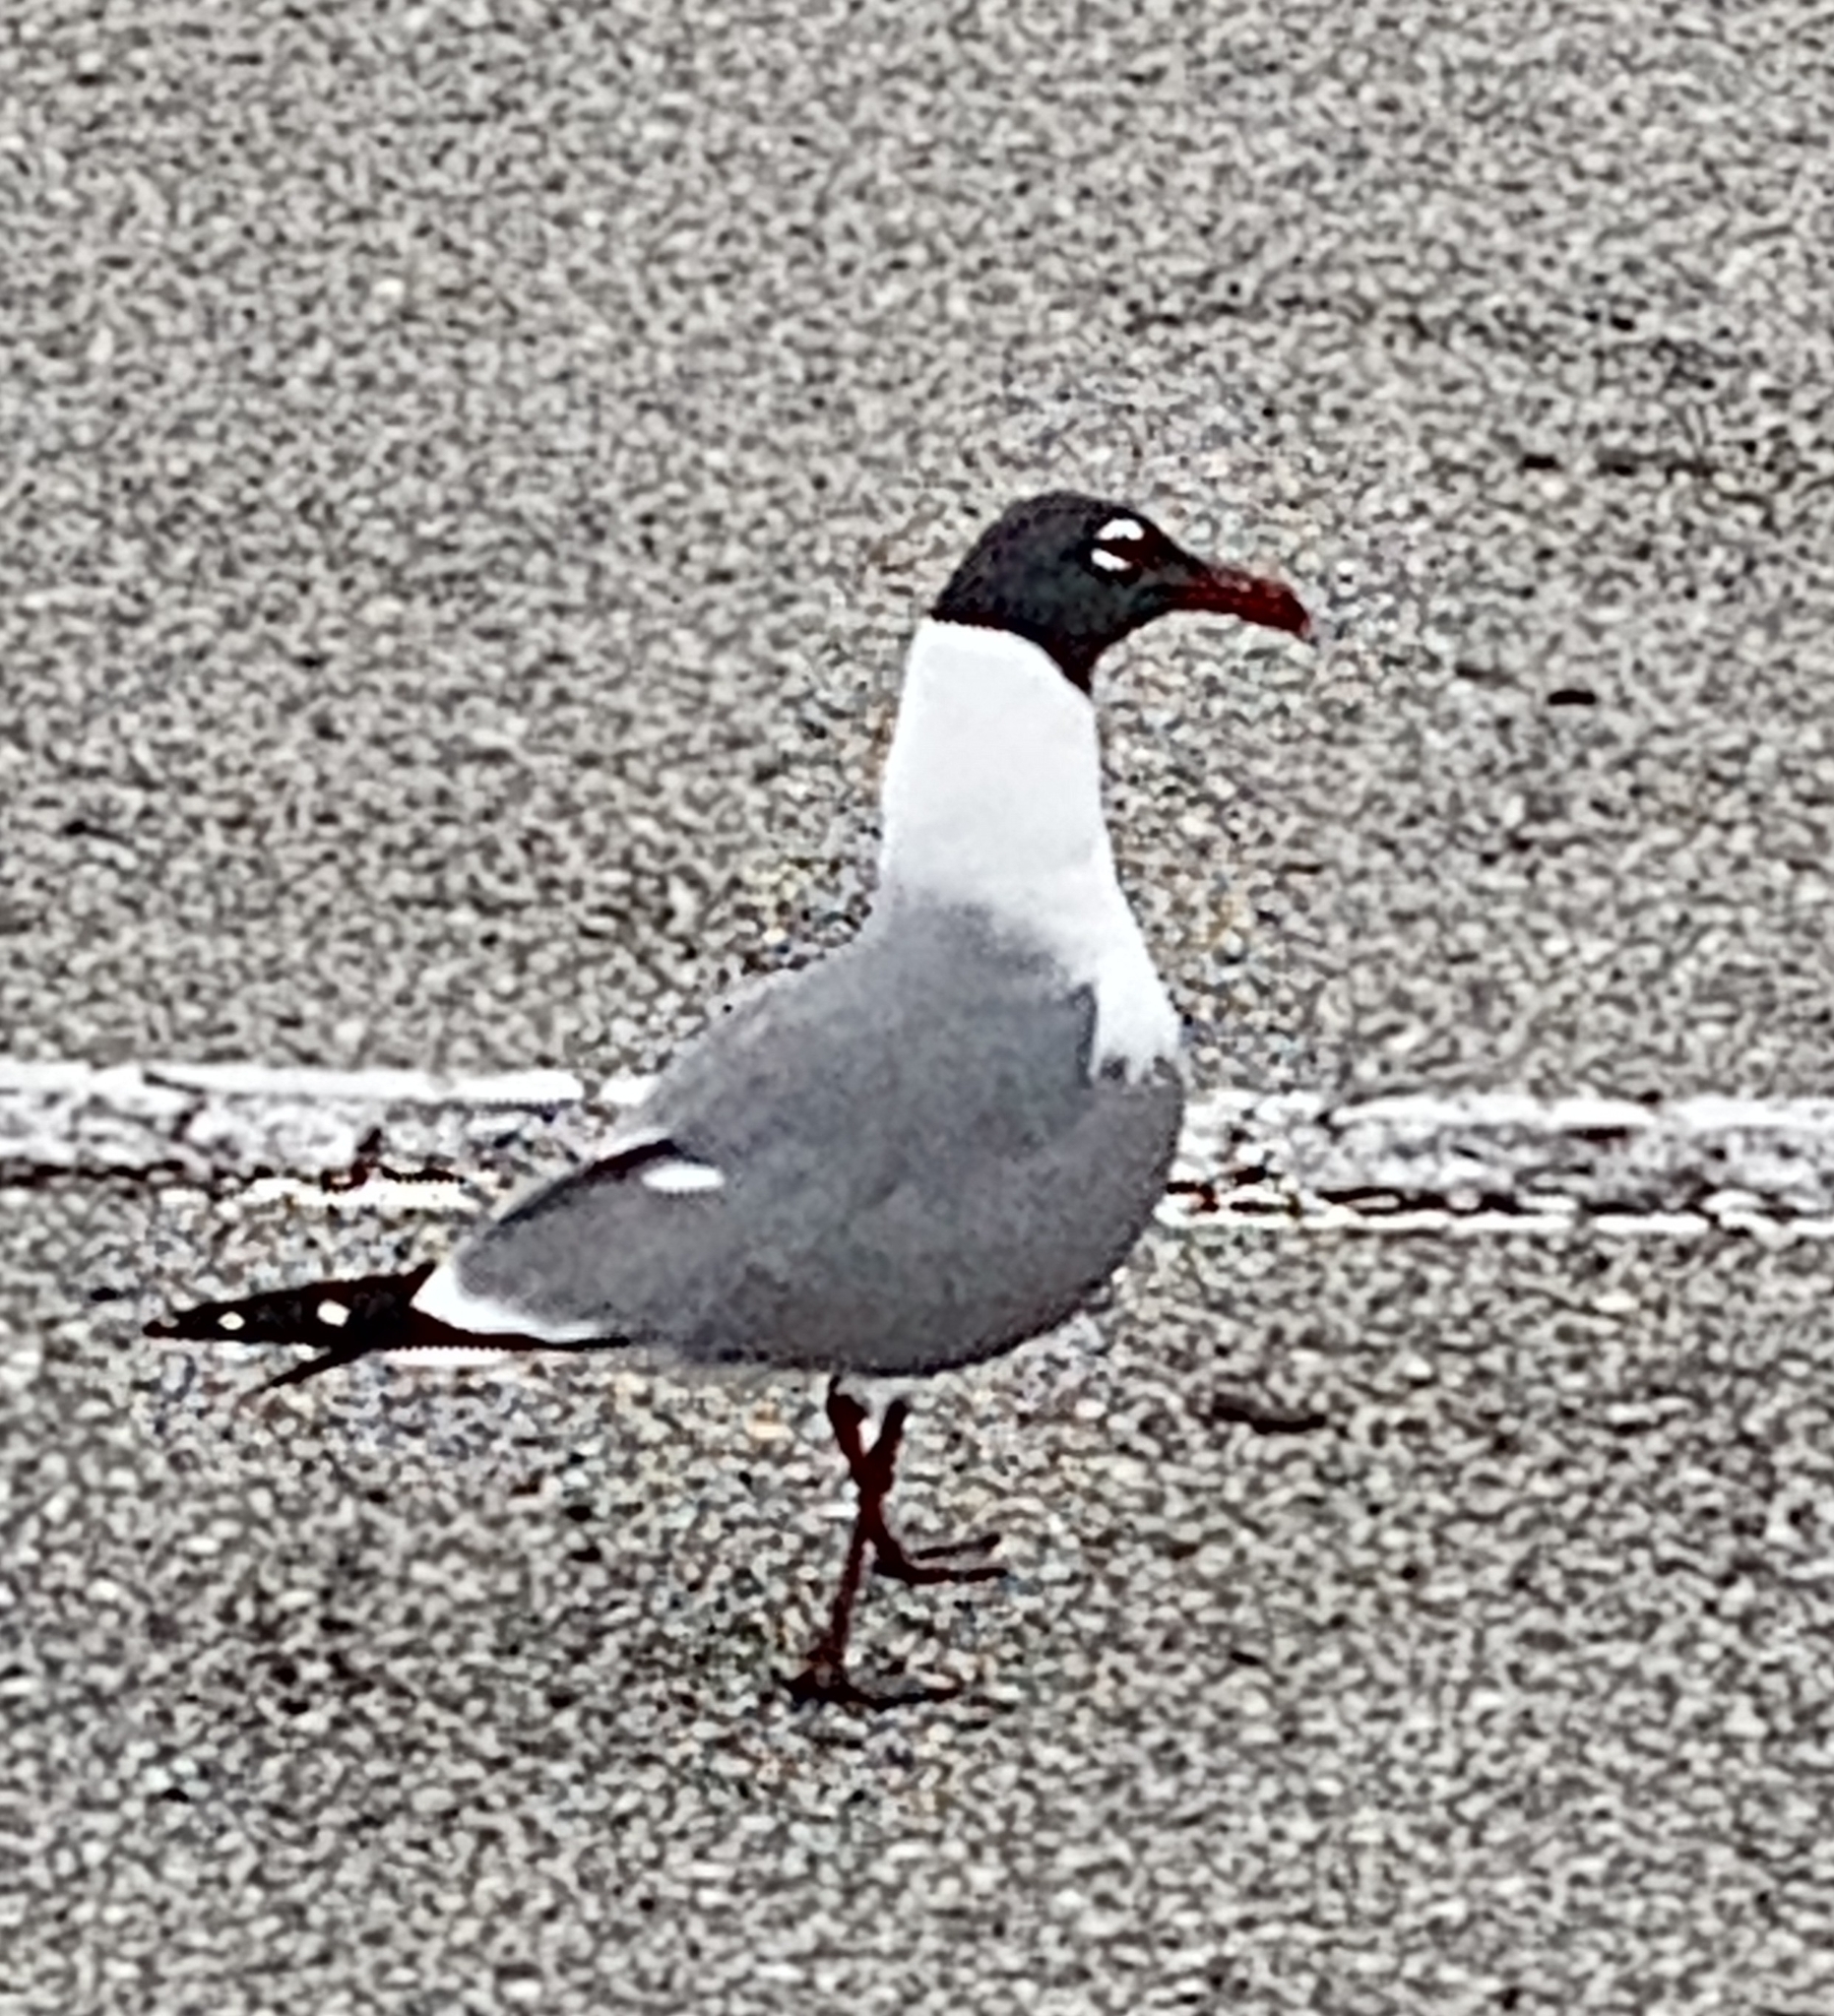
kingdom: Animalia
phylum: Chordata
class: Aves
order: Charadriiformes
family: Laridae
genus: Leucophaeus
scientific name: Leucophaeus atricilla
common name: Laughing gull
